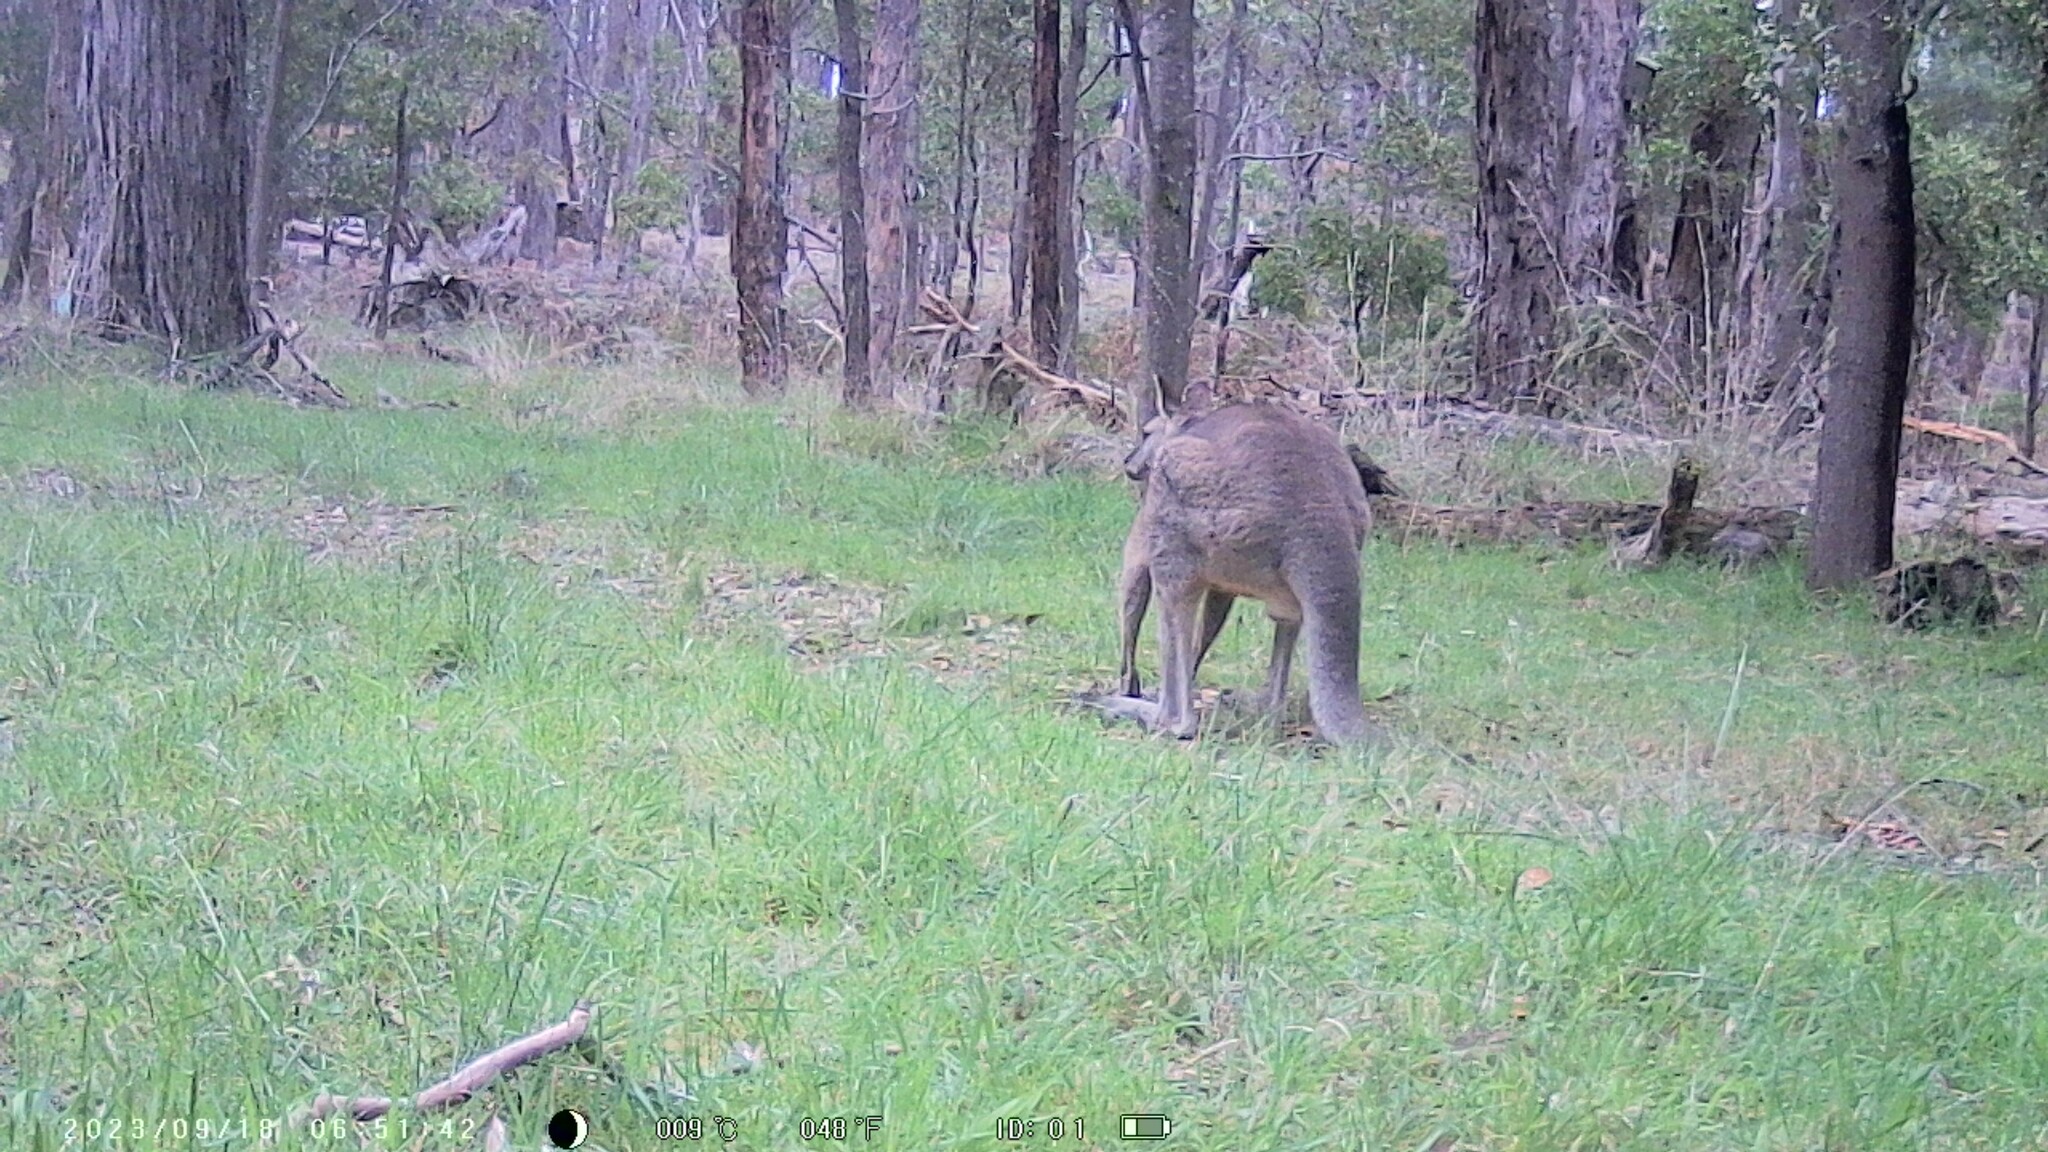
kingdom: Animalia
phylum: Chordata
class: Mammalia
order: Diprotodontia
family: Macropodidae
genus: Macropus
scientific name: Macropus giganteus
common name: Eastern grey kangaroo
